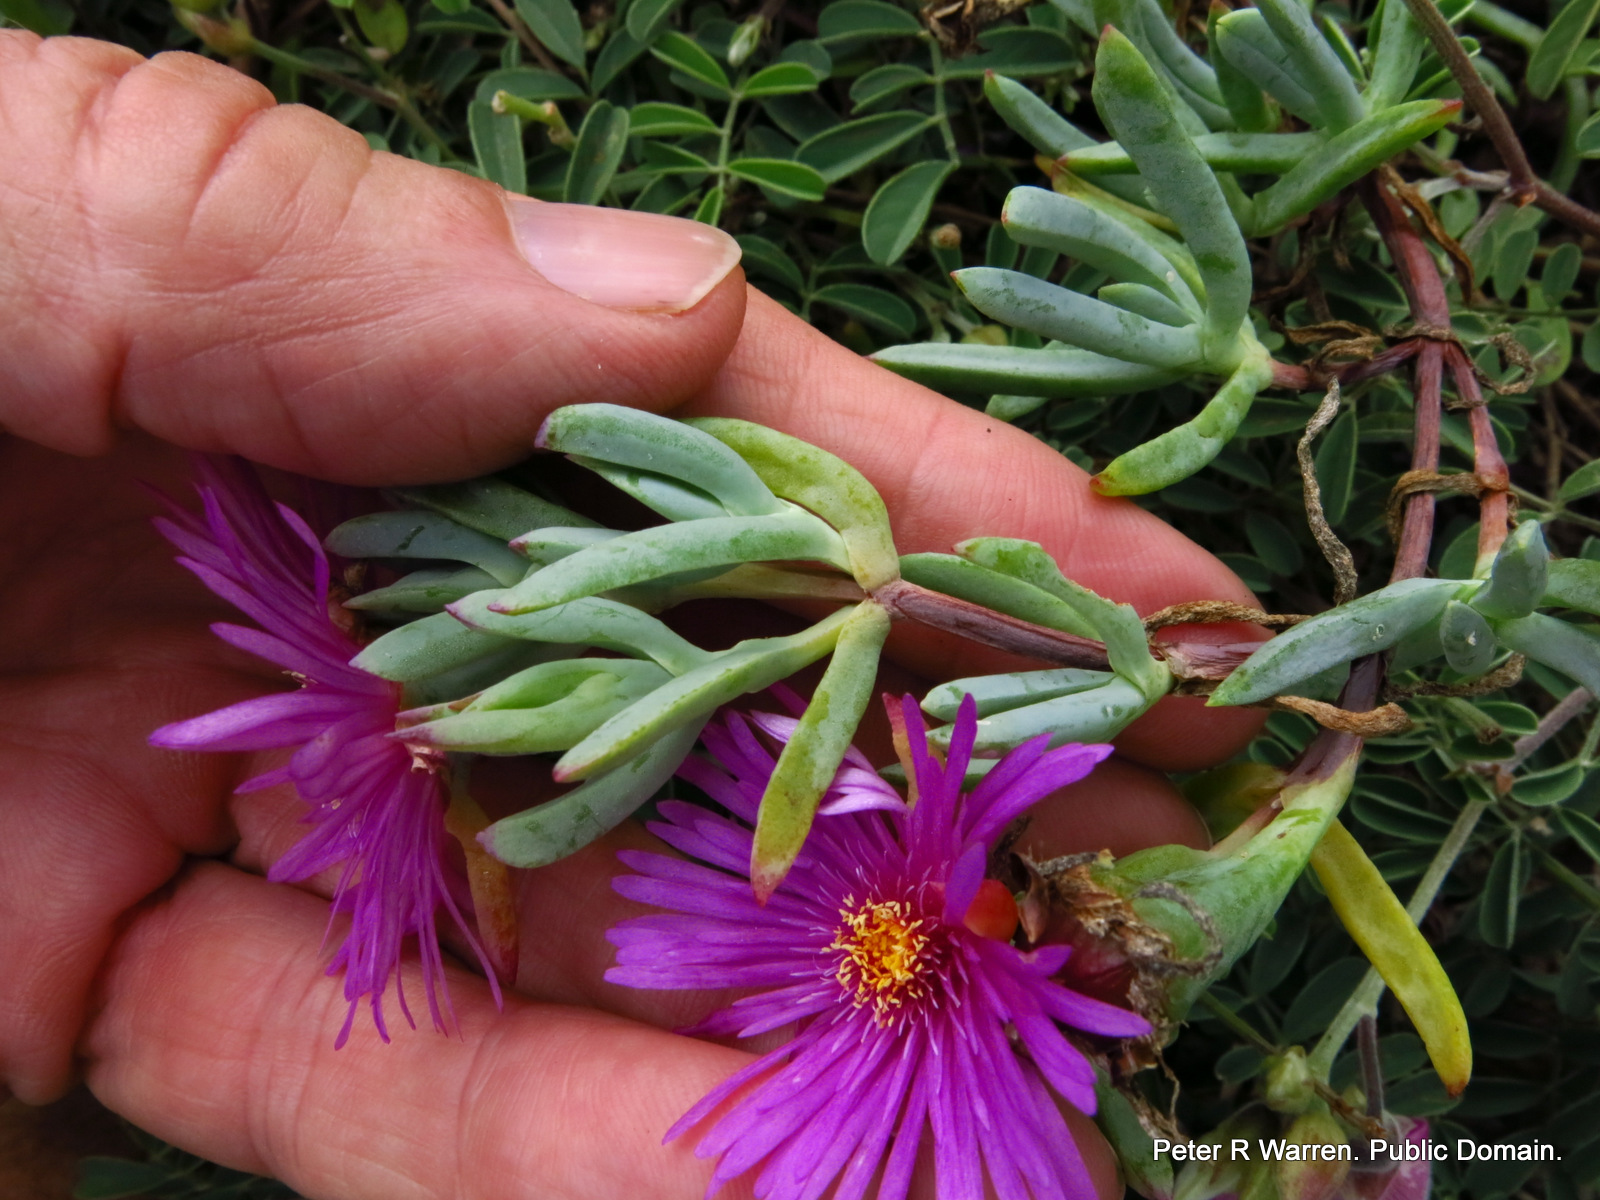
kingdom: Plantae
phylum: Tracheophyta
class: Magnoliopsida
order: Caryophyllales
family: Aizoaceae
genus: Lampranthus
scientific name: Lampranthus fugitans
